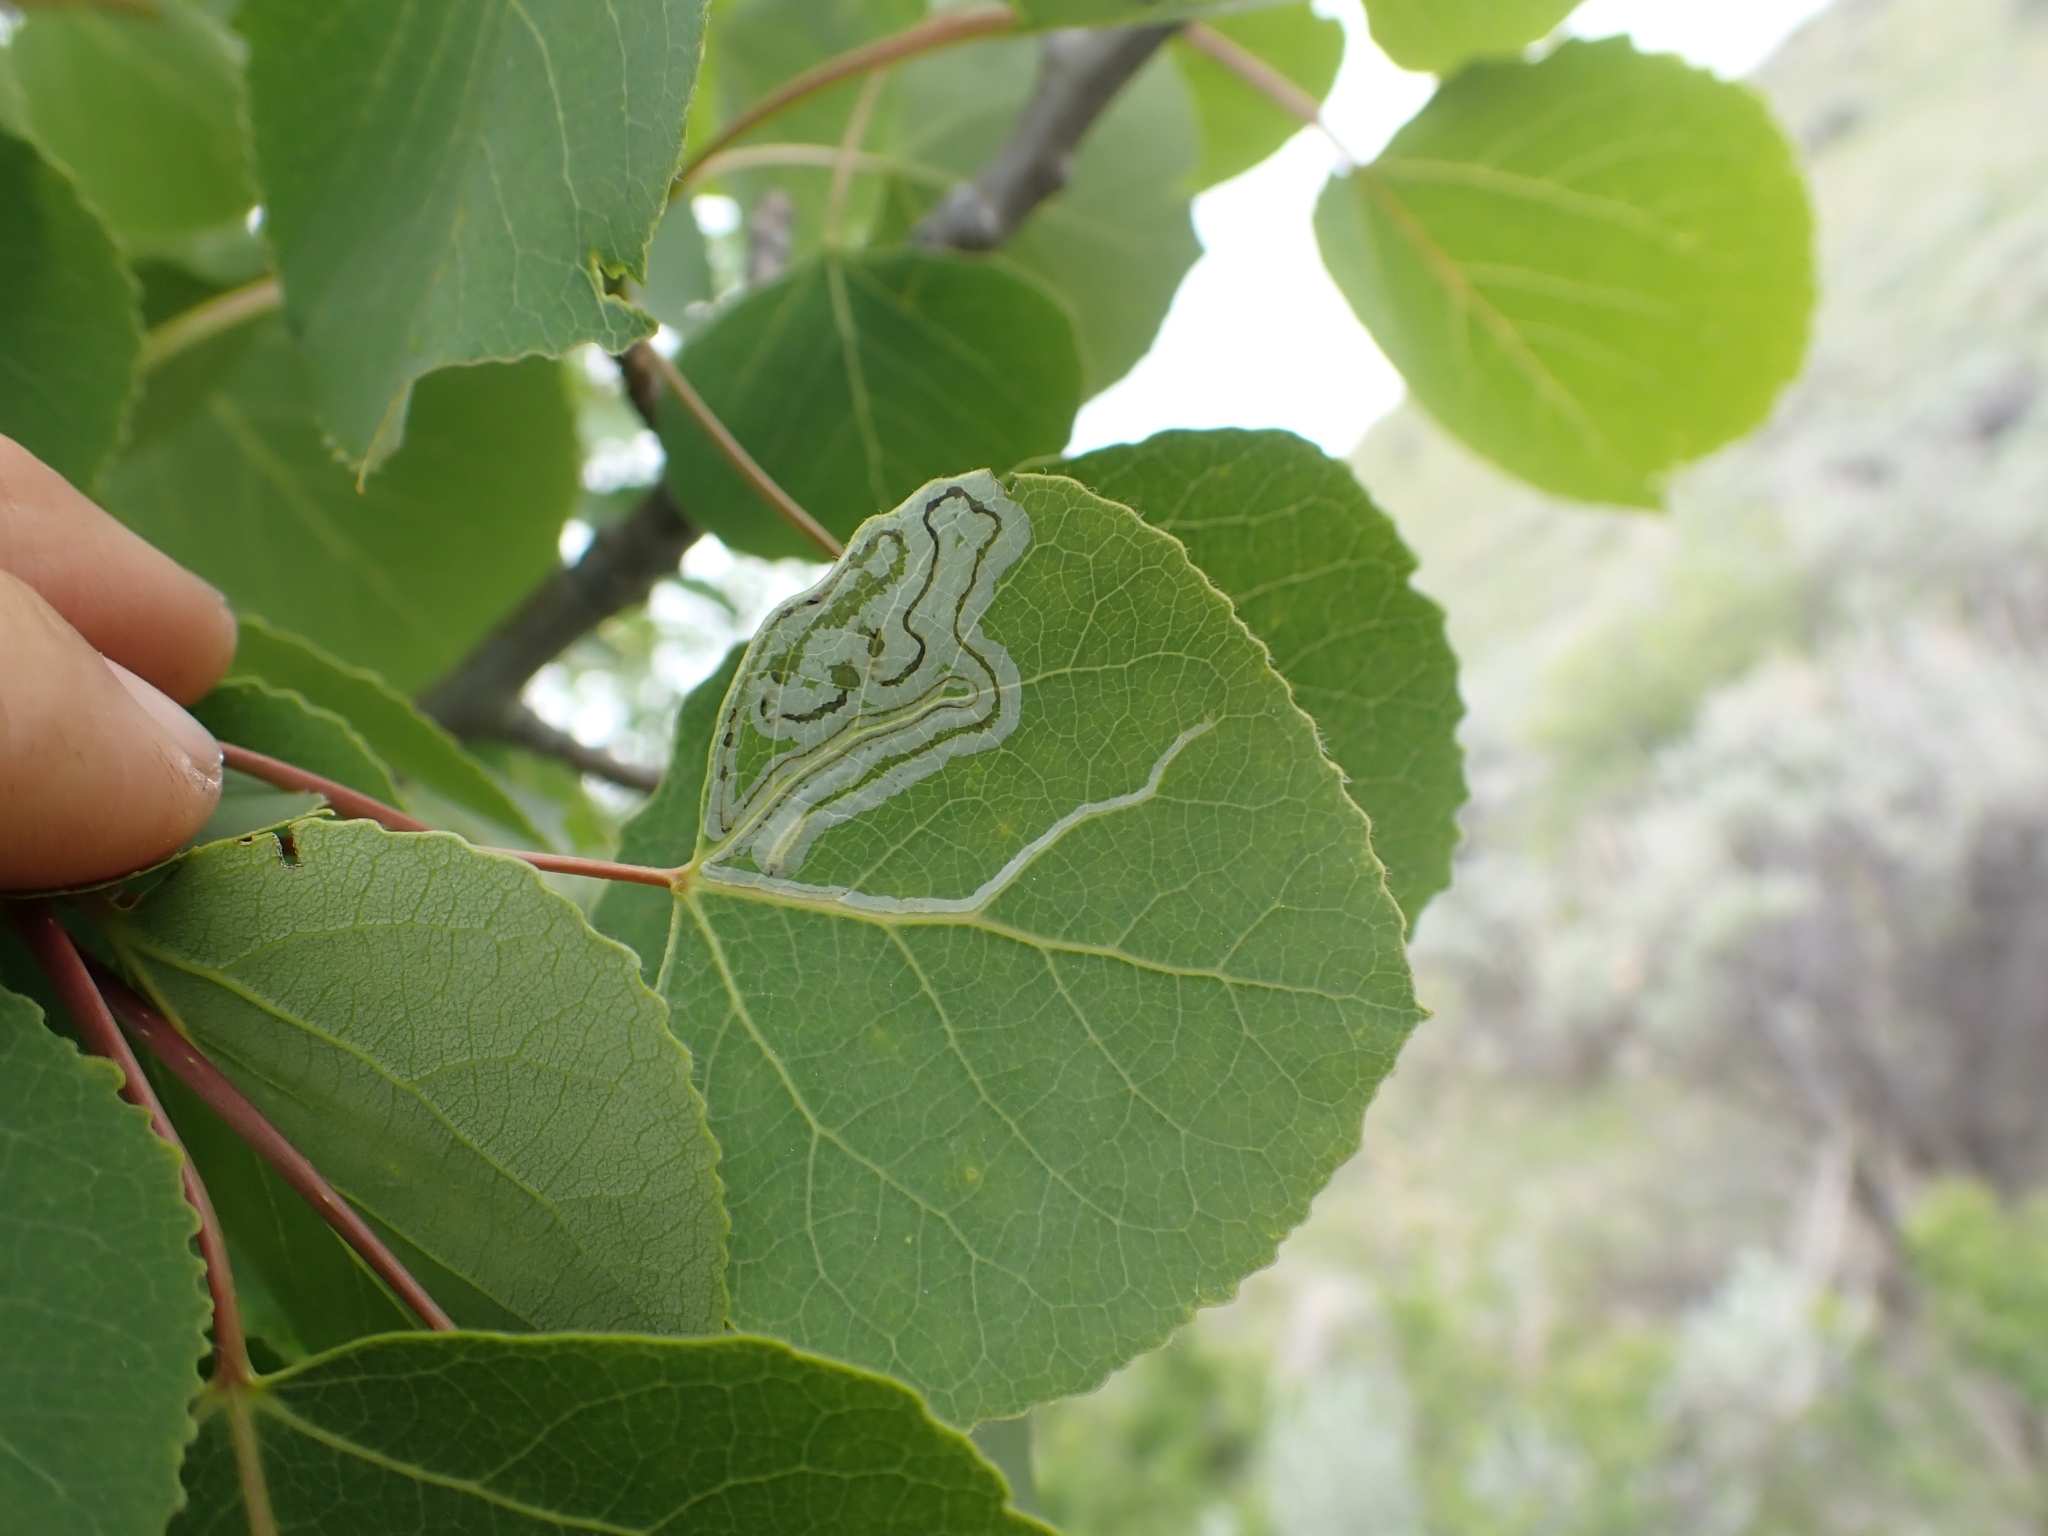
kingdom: Animalia
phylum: Arthropoda
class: Insecta
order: Lepidoptera
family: Gracillariidae
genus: Phyllocnistis
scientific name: Phyllocnistis populiella
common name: Aspen serpentine leafminer moth
